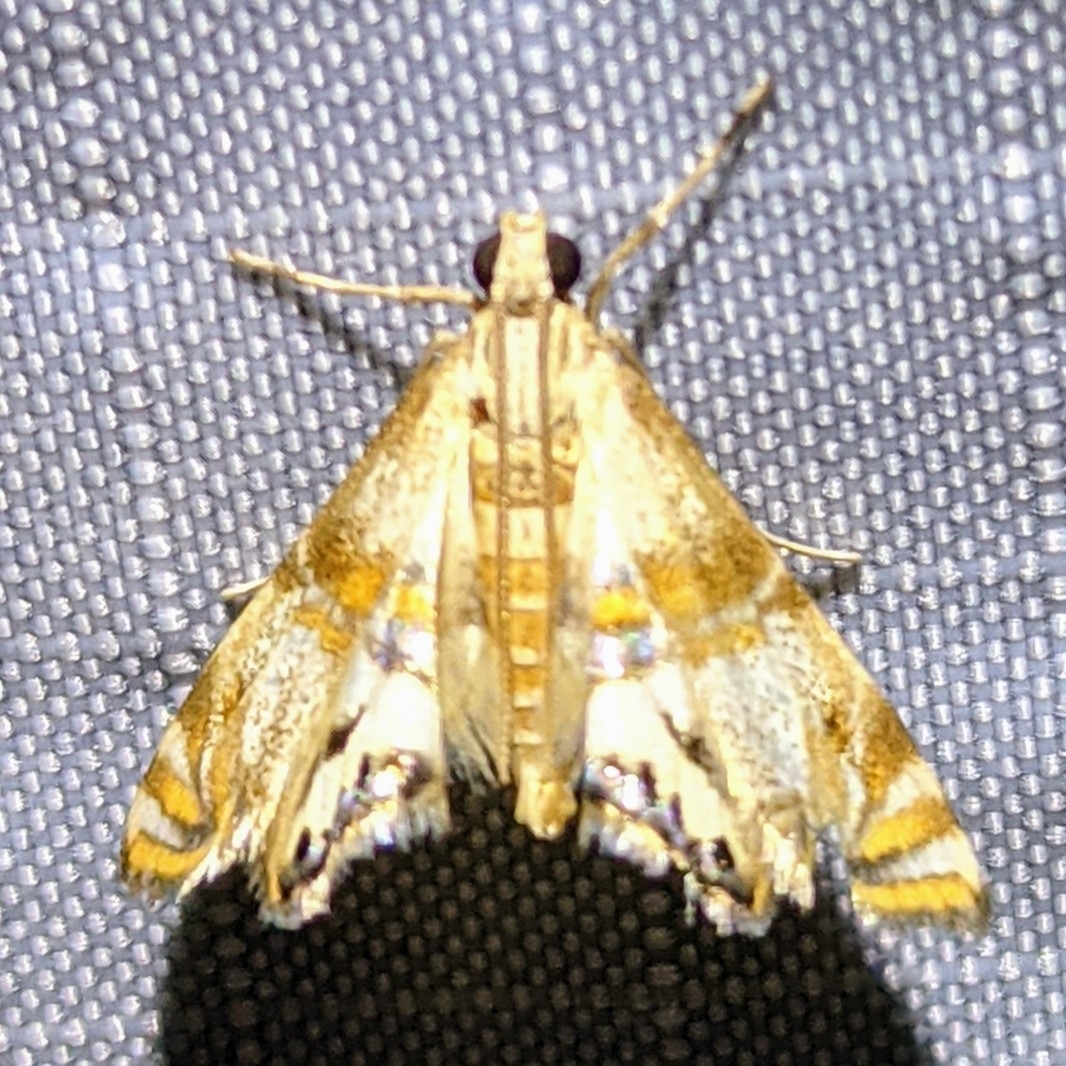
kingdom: Animalia
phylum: Arthropoda
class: Insecta
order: Lepidoptera
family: Crambidae
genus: Petrophila
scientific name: Petrophila bifascialis
